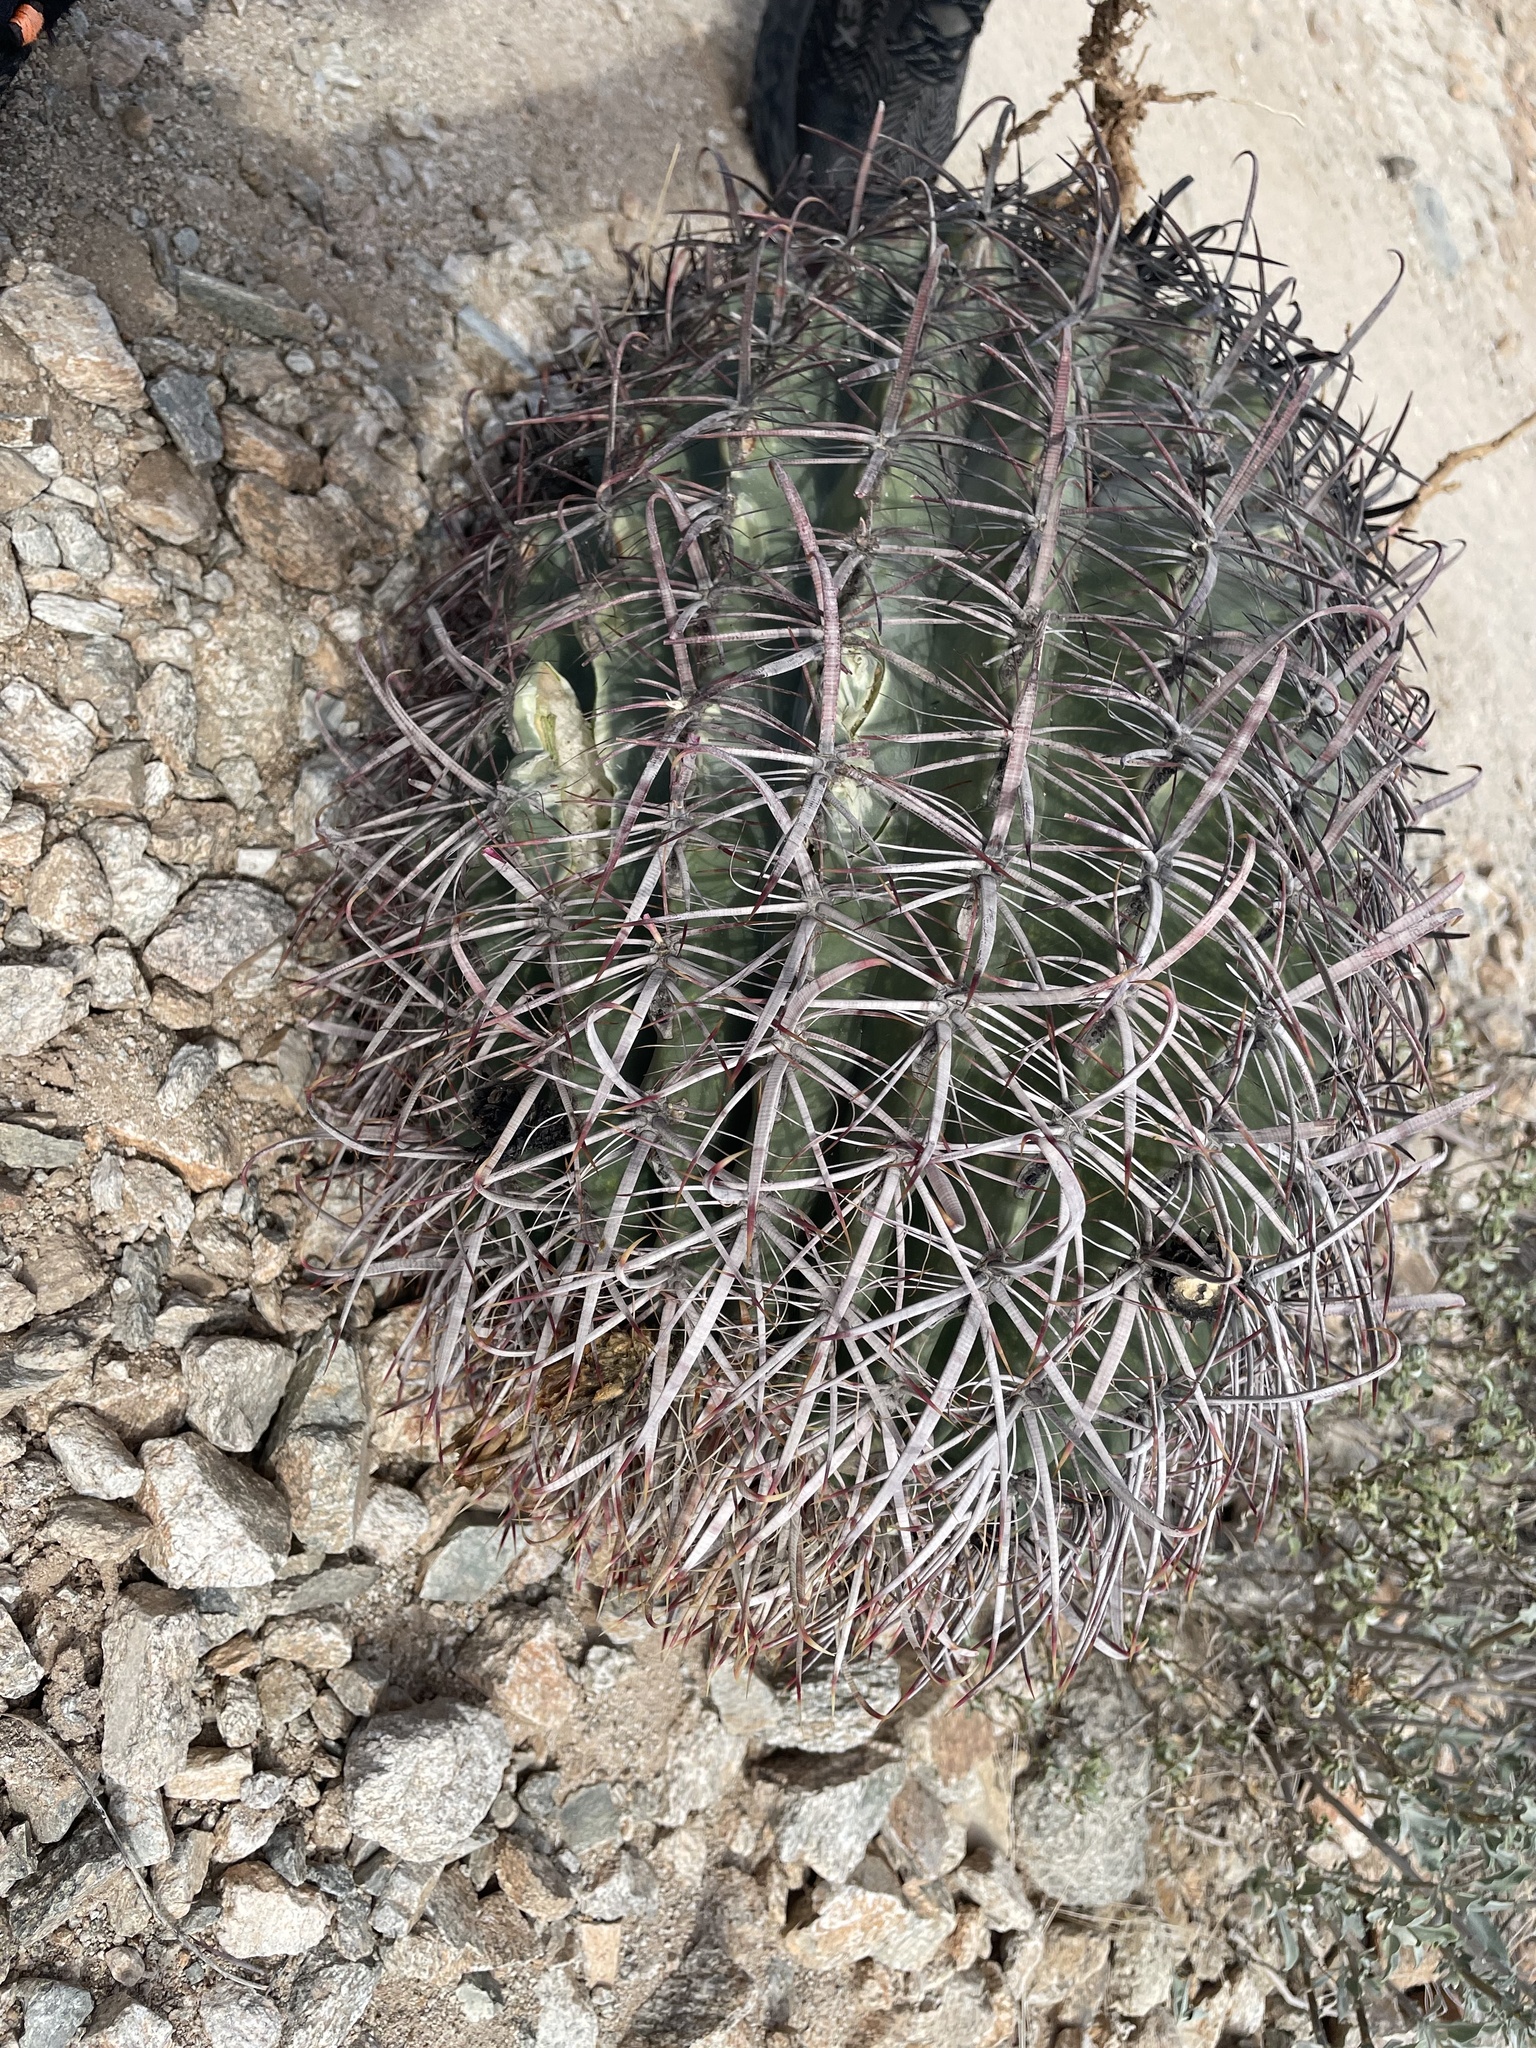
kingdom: Plantae
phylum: Tracheophyta
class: Magnoliopsida
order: Caryophyllales
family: Cactaceae
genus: Ferocactus
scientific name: Ferocactus cylindraceus
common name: California barrel cactus
